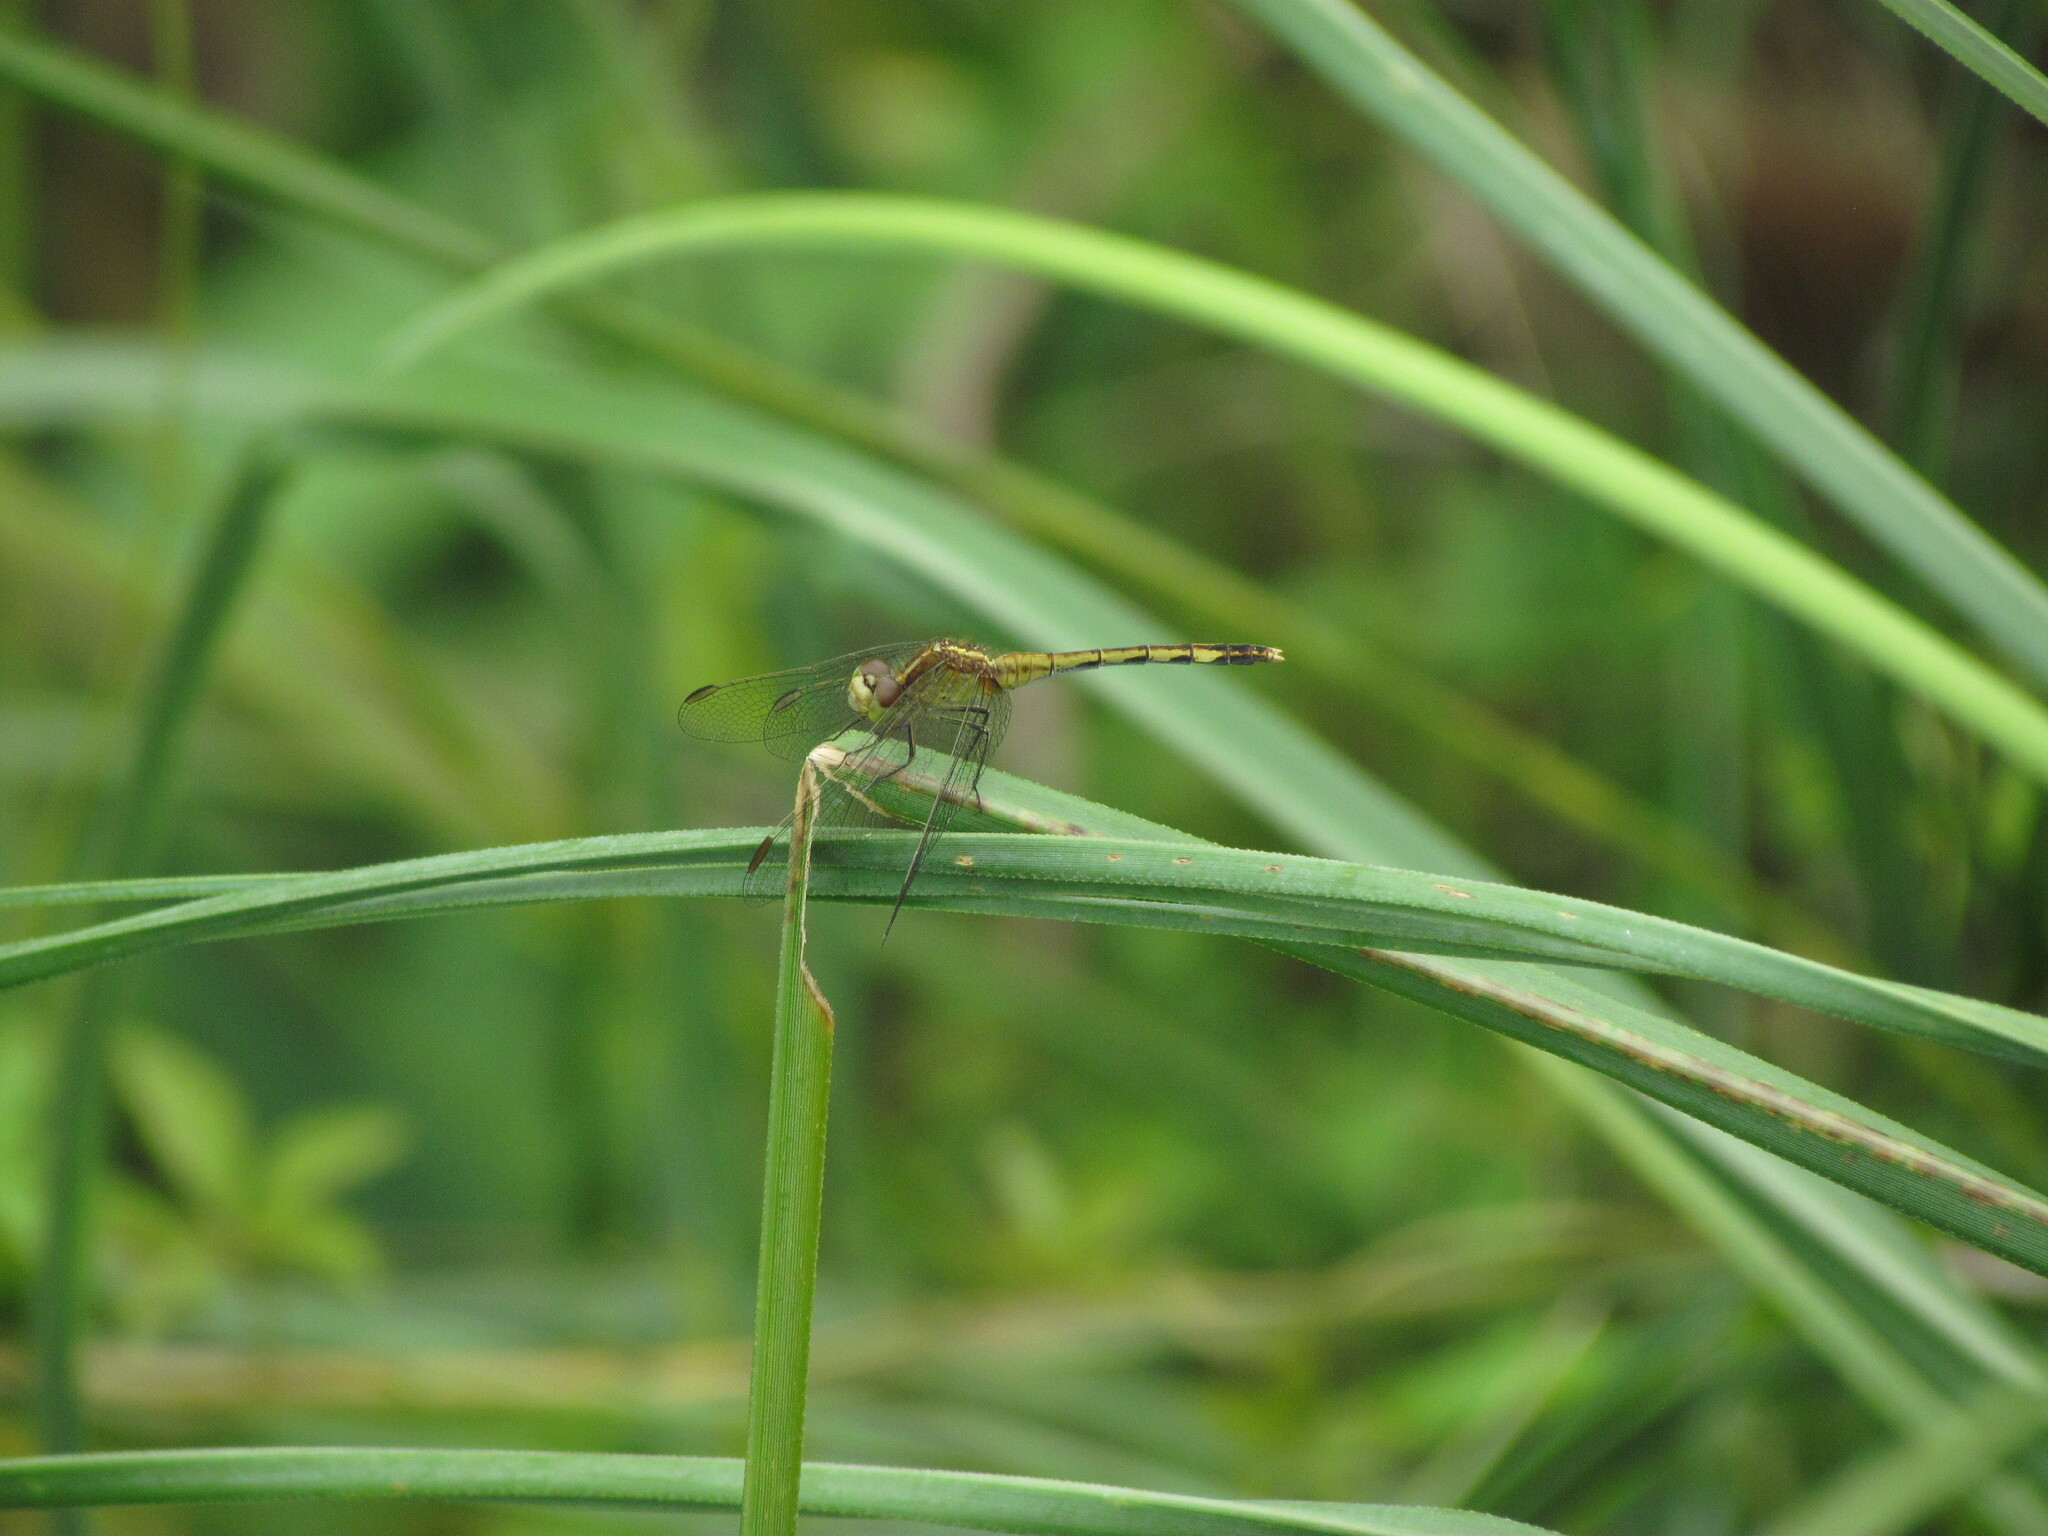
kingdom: Animalia
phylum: Arthropoda
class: Insecta
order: Odonata
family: Libellulidae
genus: Erythrodiplax
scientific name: Erythrodiplax nigricans
